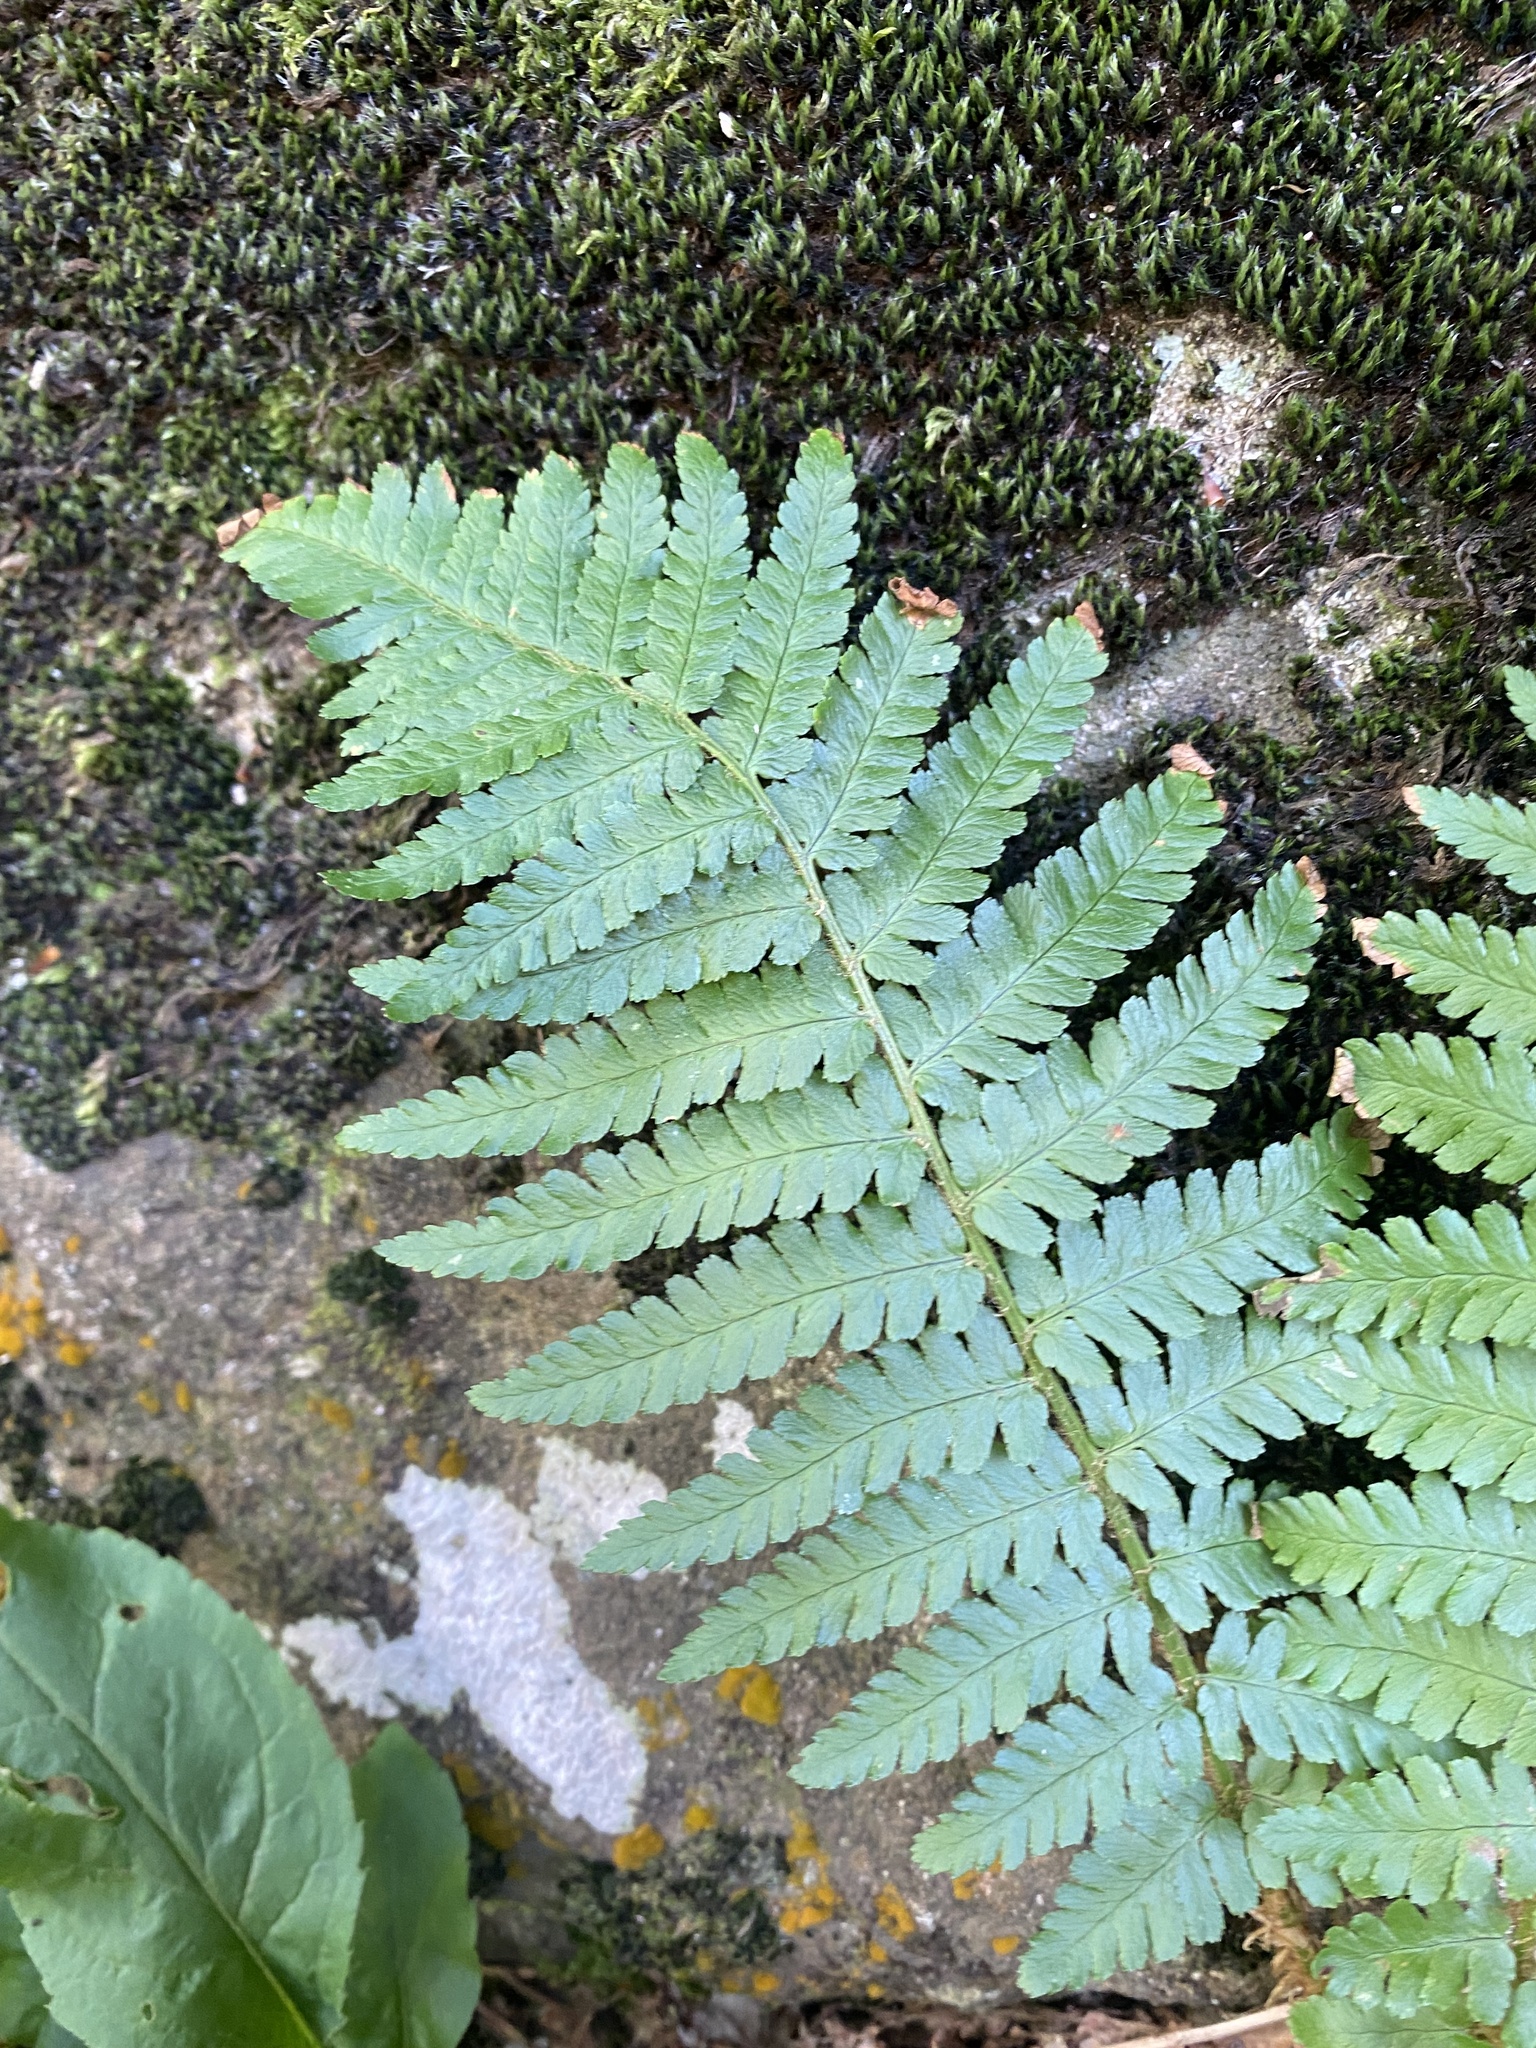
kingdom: Plantae
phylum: Tracheophyta
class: Polypodiopsida
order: Polypodiales
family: Dryopteridaceae
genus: Dryopteris
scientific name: Dryopteris filix-mas
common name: Male fern
